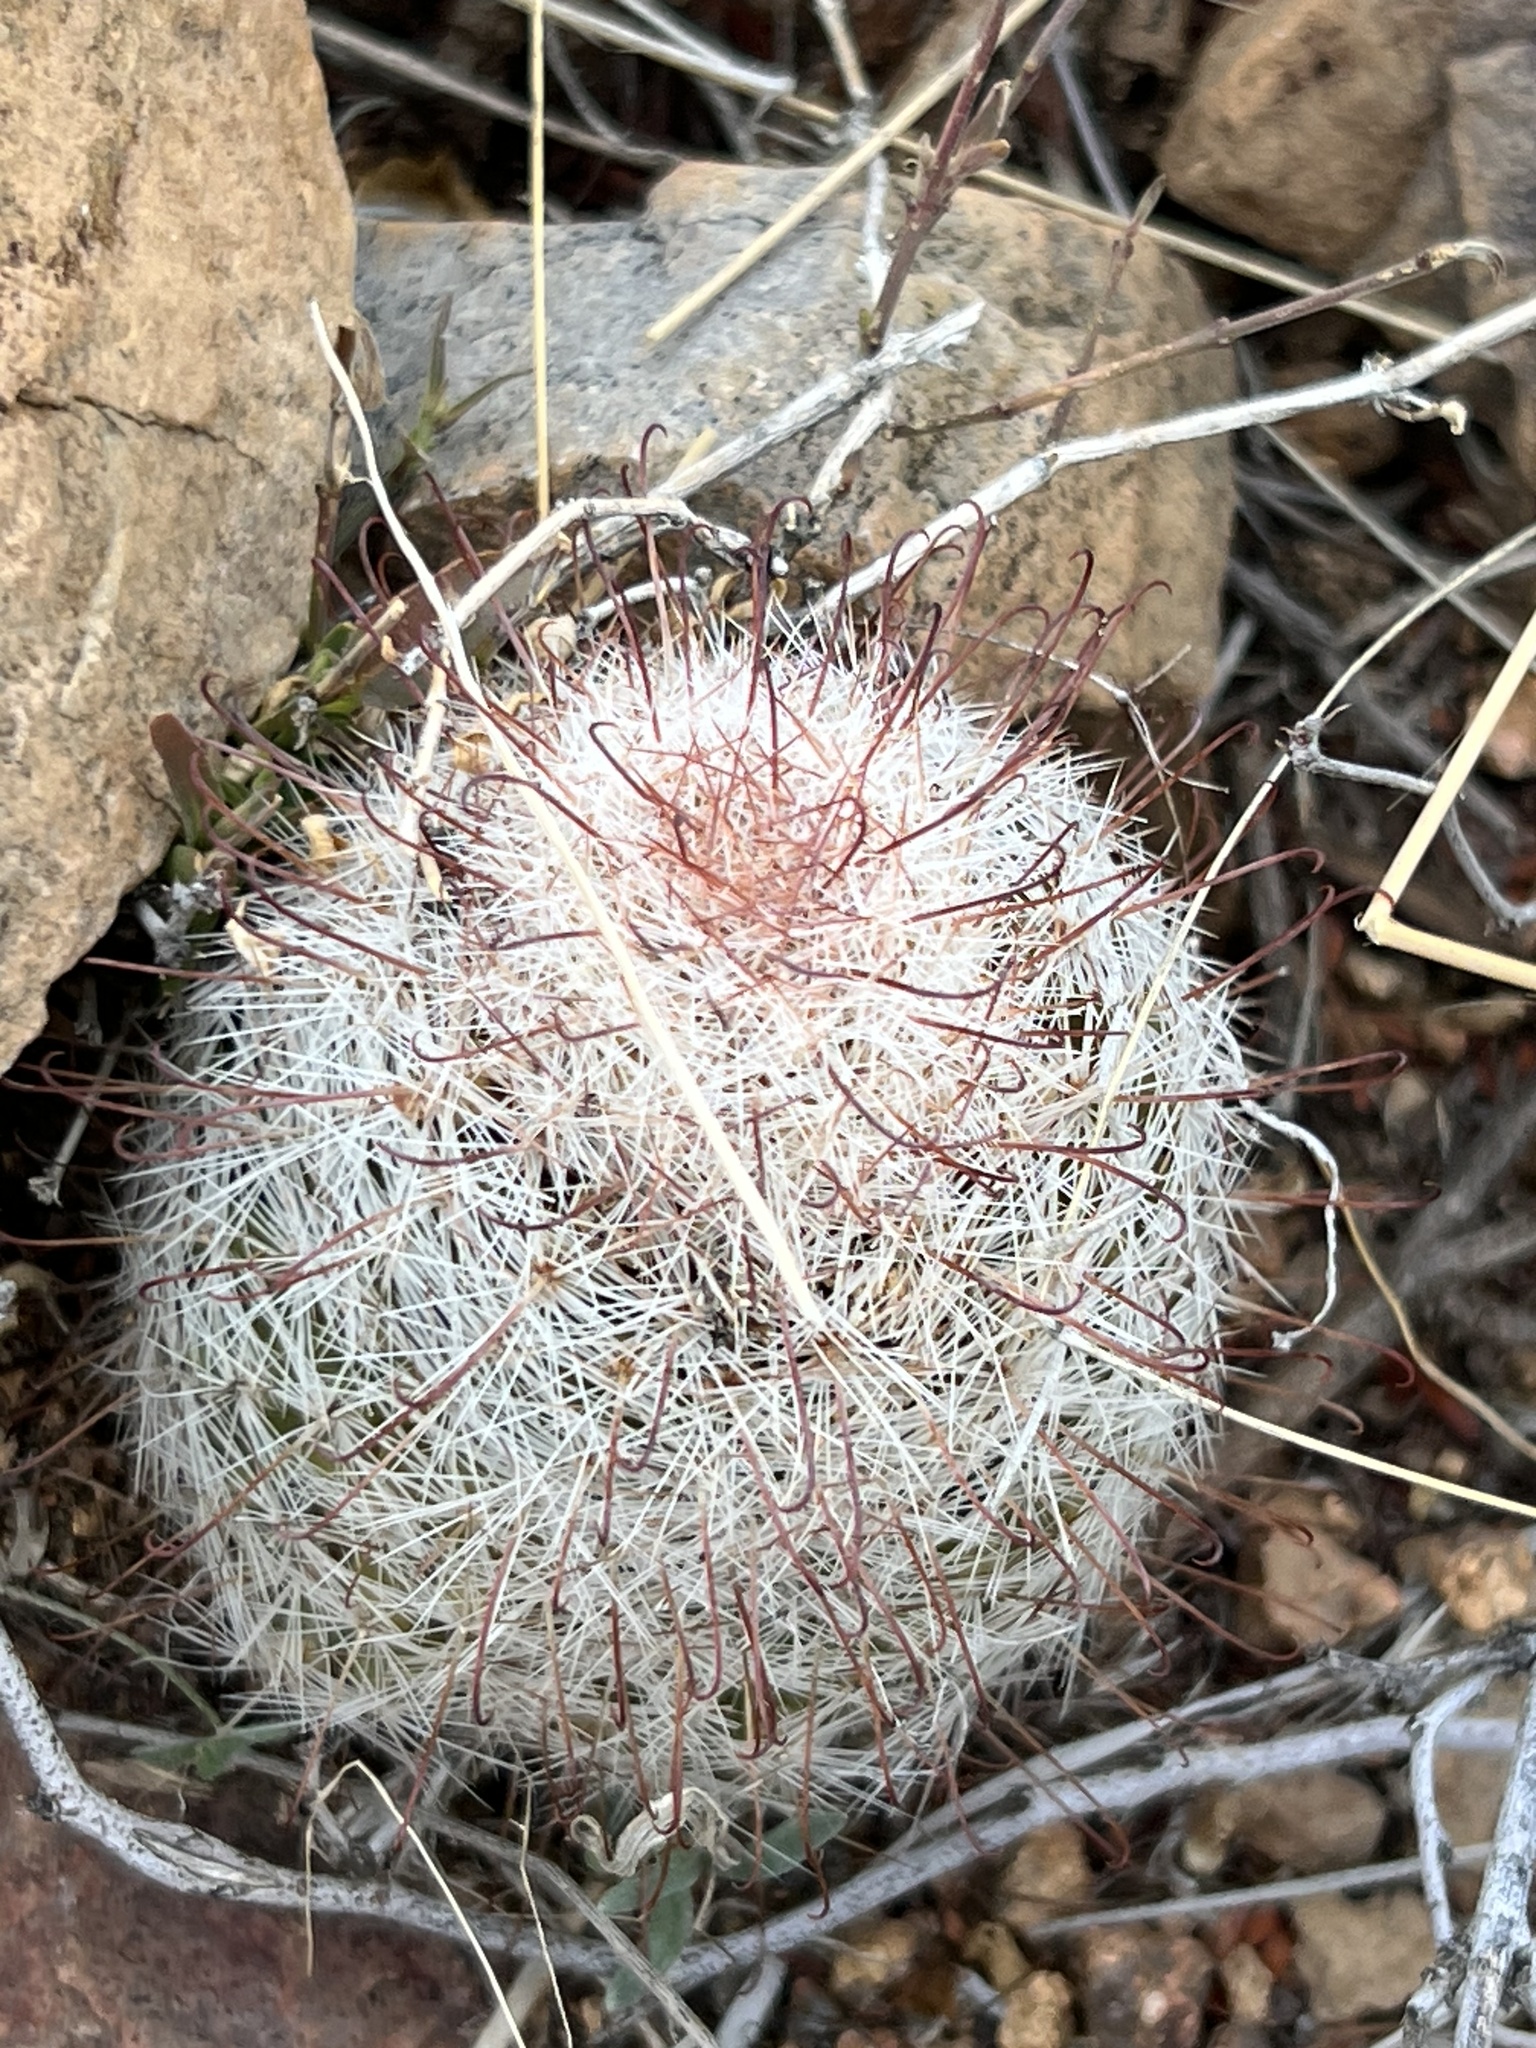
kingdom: Plantae
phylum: Tracheophyta
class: Magnoliopsida
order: Caryophyllales
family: Cactaceae
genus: Cochemiea
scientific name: Cochemiea grahamii
